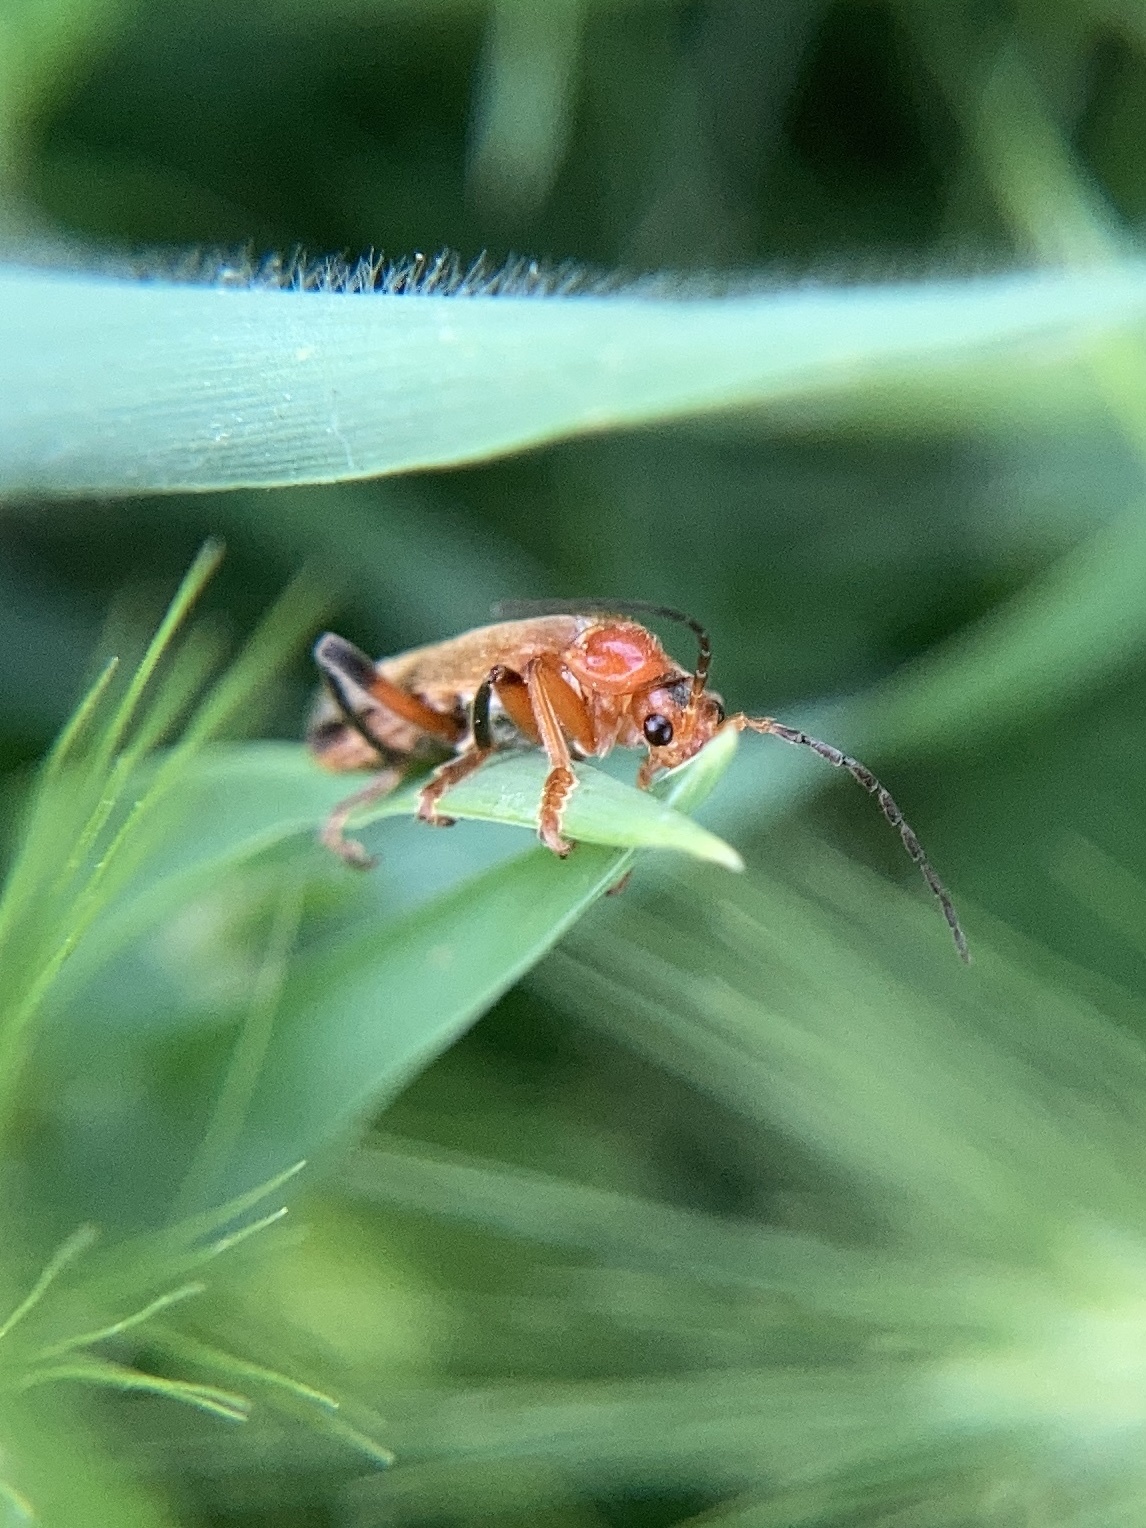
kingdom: Animalia
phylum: Arthropoda
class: Insecta
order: Coleoptera
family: Cantharidae
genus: Cantharis
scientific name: Cantharis livida
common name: Livid soldier beetle
